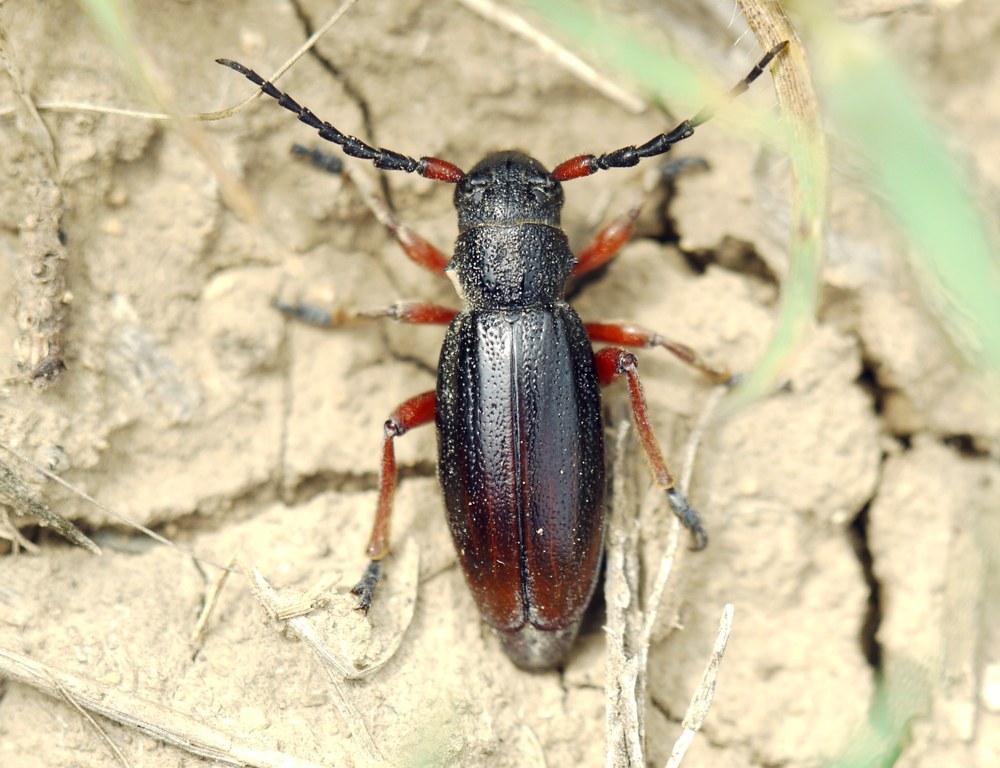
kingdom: Animalia
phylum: Arthropoda
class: Insecta
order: Coleoptera
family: Cerambycidae
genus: Dorcadion
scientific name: Dorcadion fulvum
